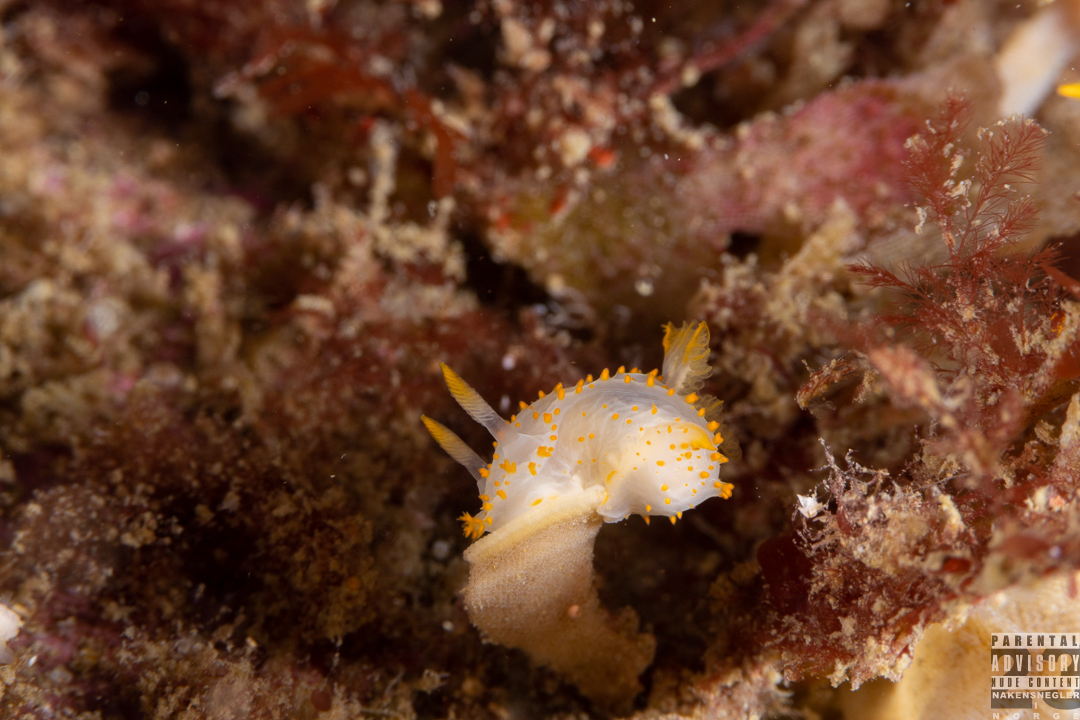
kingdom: Animalia
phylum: Mollusca
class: Gastropoda
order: Nudibranchia
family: Polyceridae
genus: Crimora
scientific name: Crimora papillata
